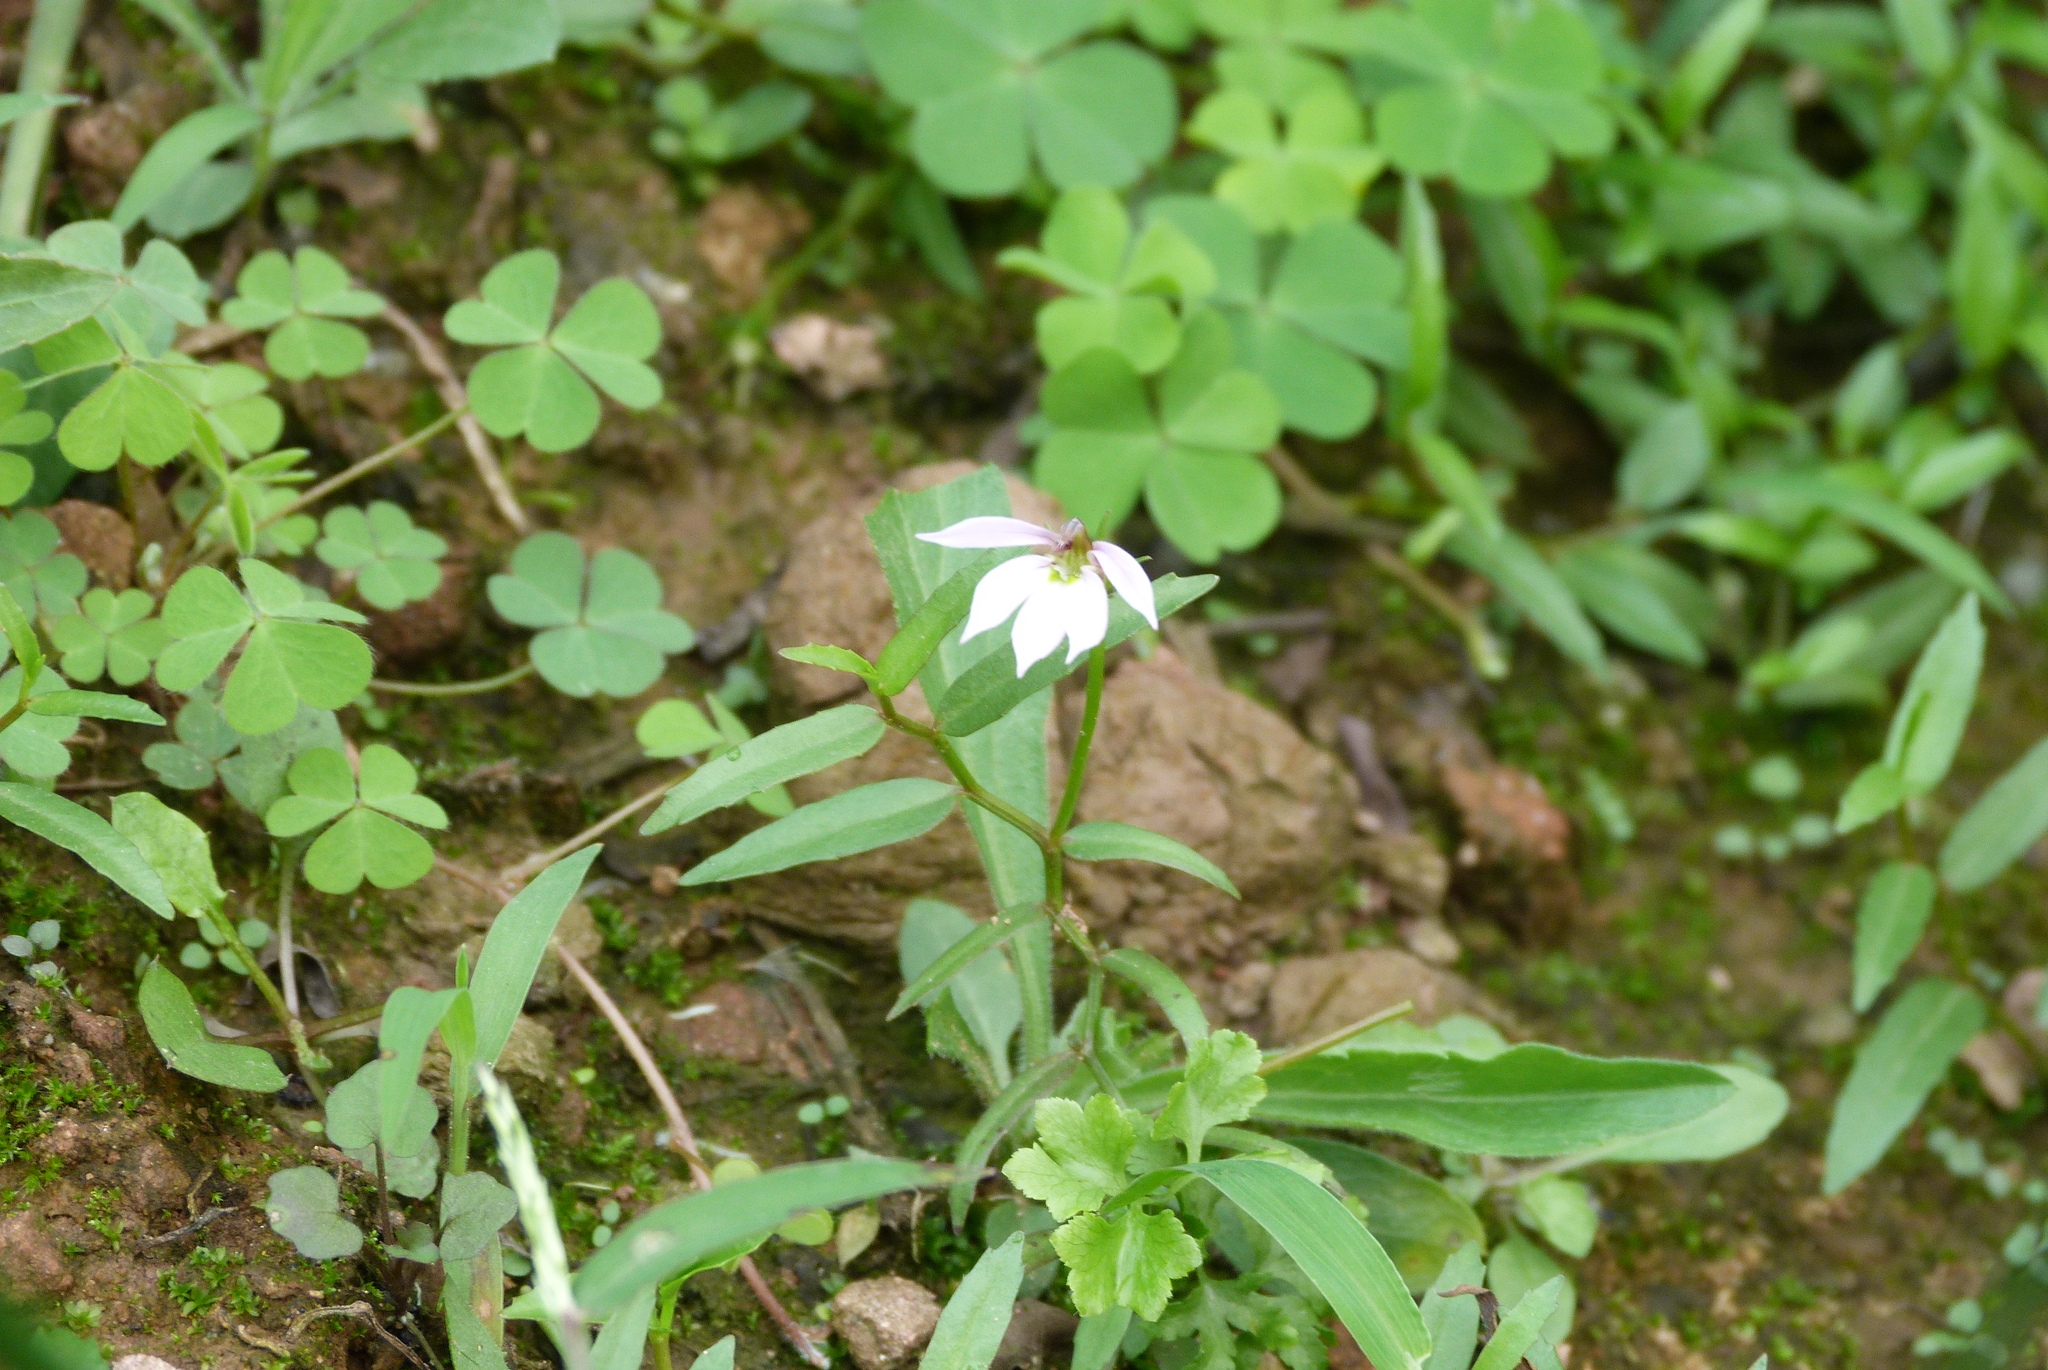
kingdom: Plantae
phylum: Tracheophyta
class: Magnoliopsida
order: Asterales
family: Campanulaceae
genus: Lobelia
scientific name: Lobelia chinensis
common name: Chinese lobelia
